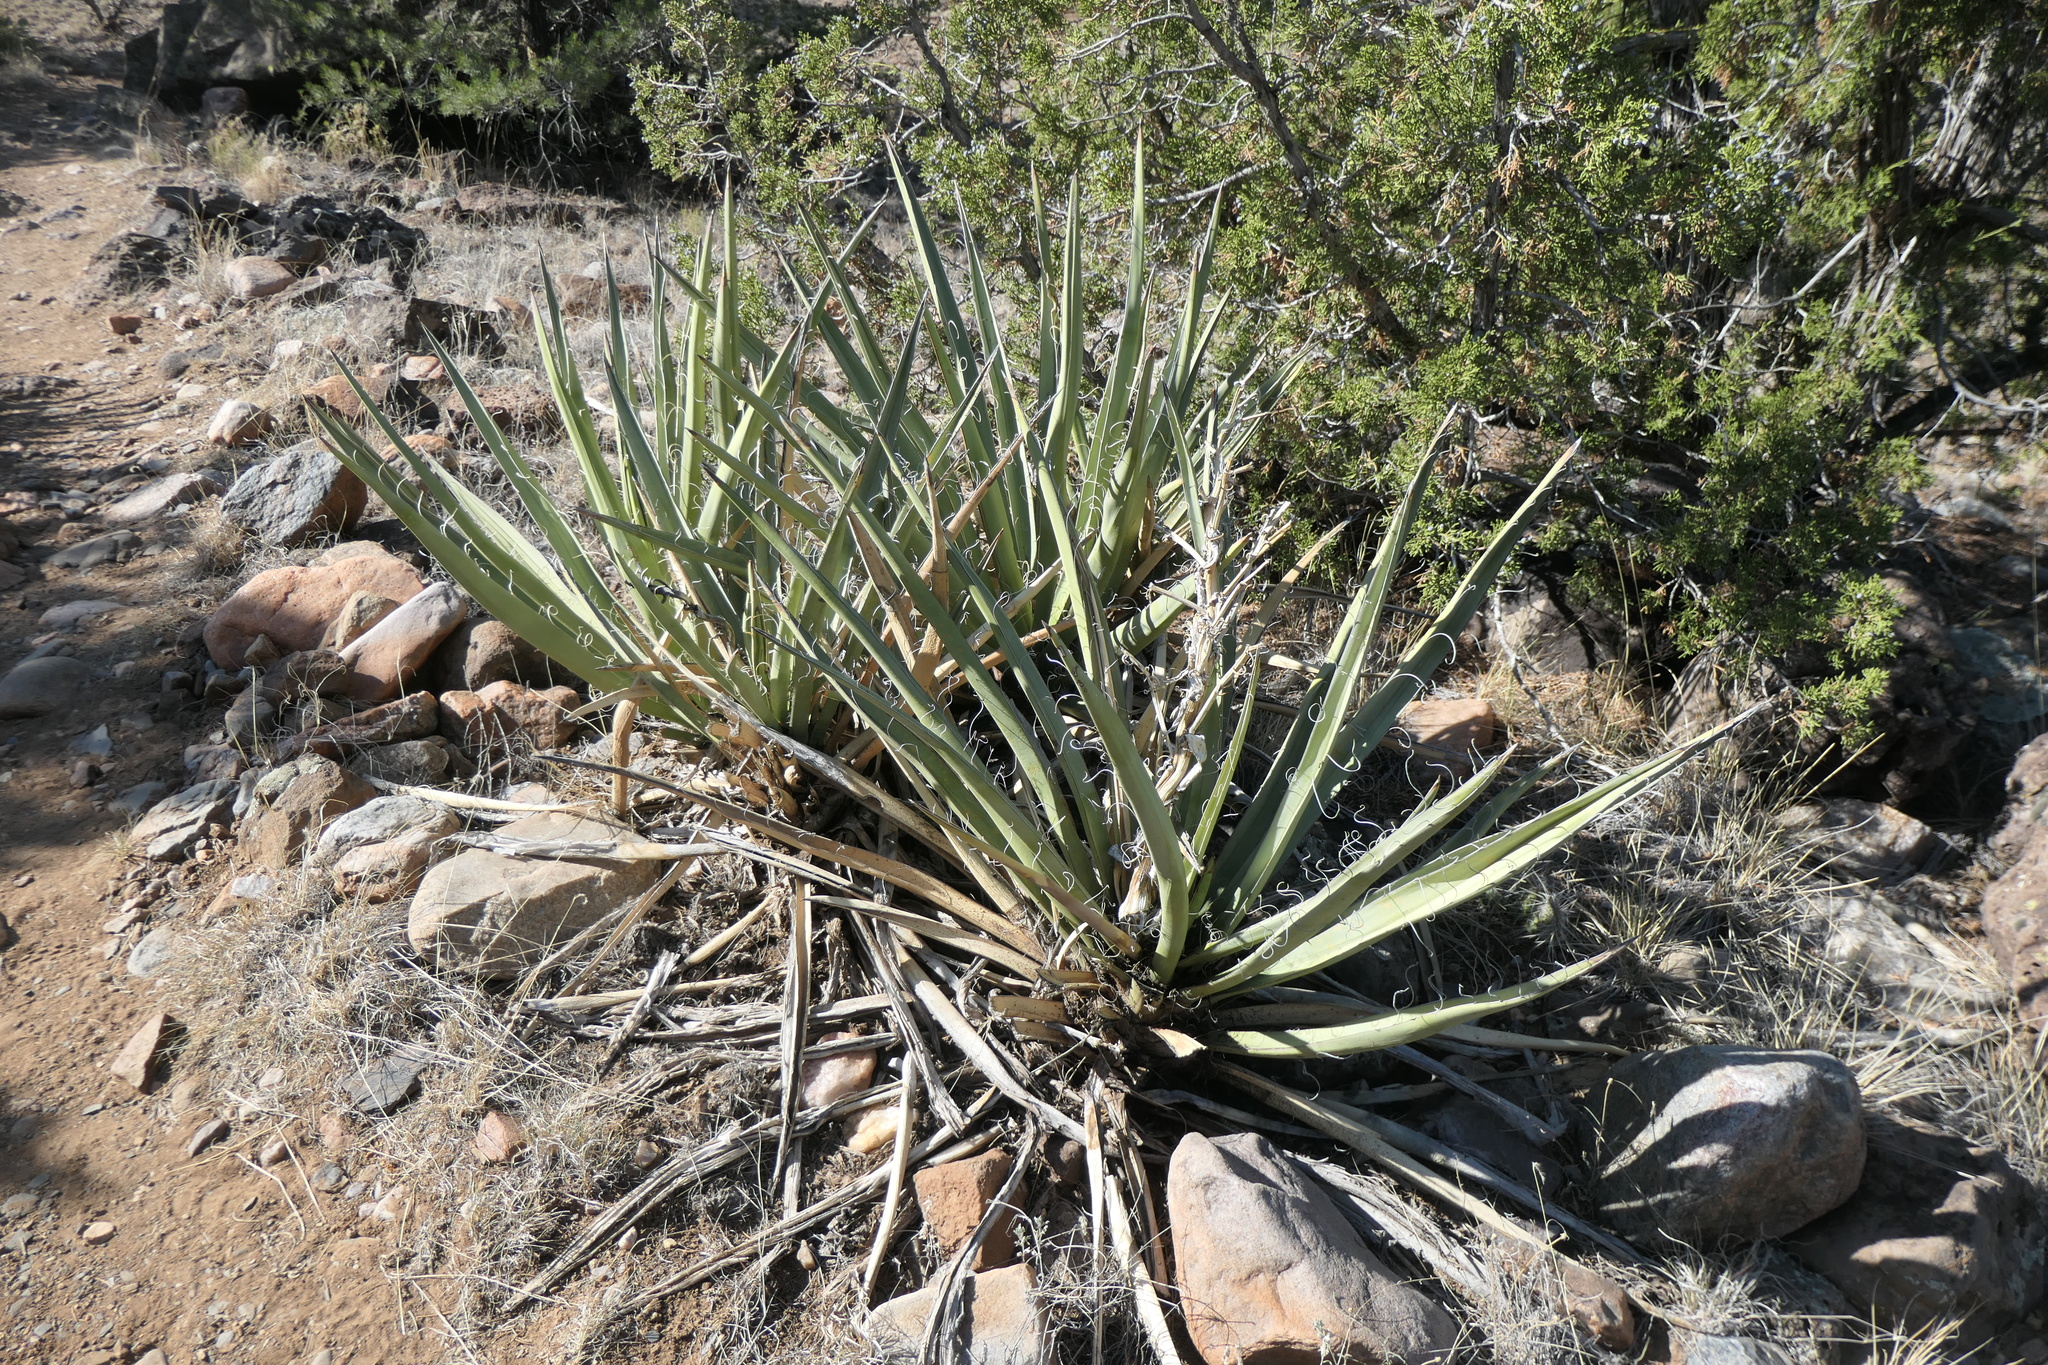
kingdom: Plantae
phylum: Tracheophyta
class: Liliopsida
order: Asparagales
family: Asparagaceae
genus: Yucca
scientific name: Yucca baccata
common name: Banana yucca
